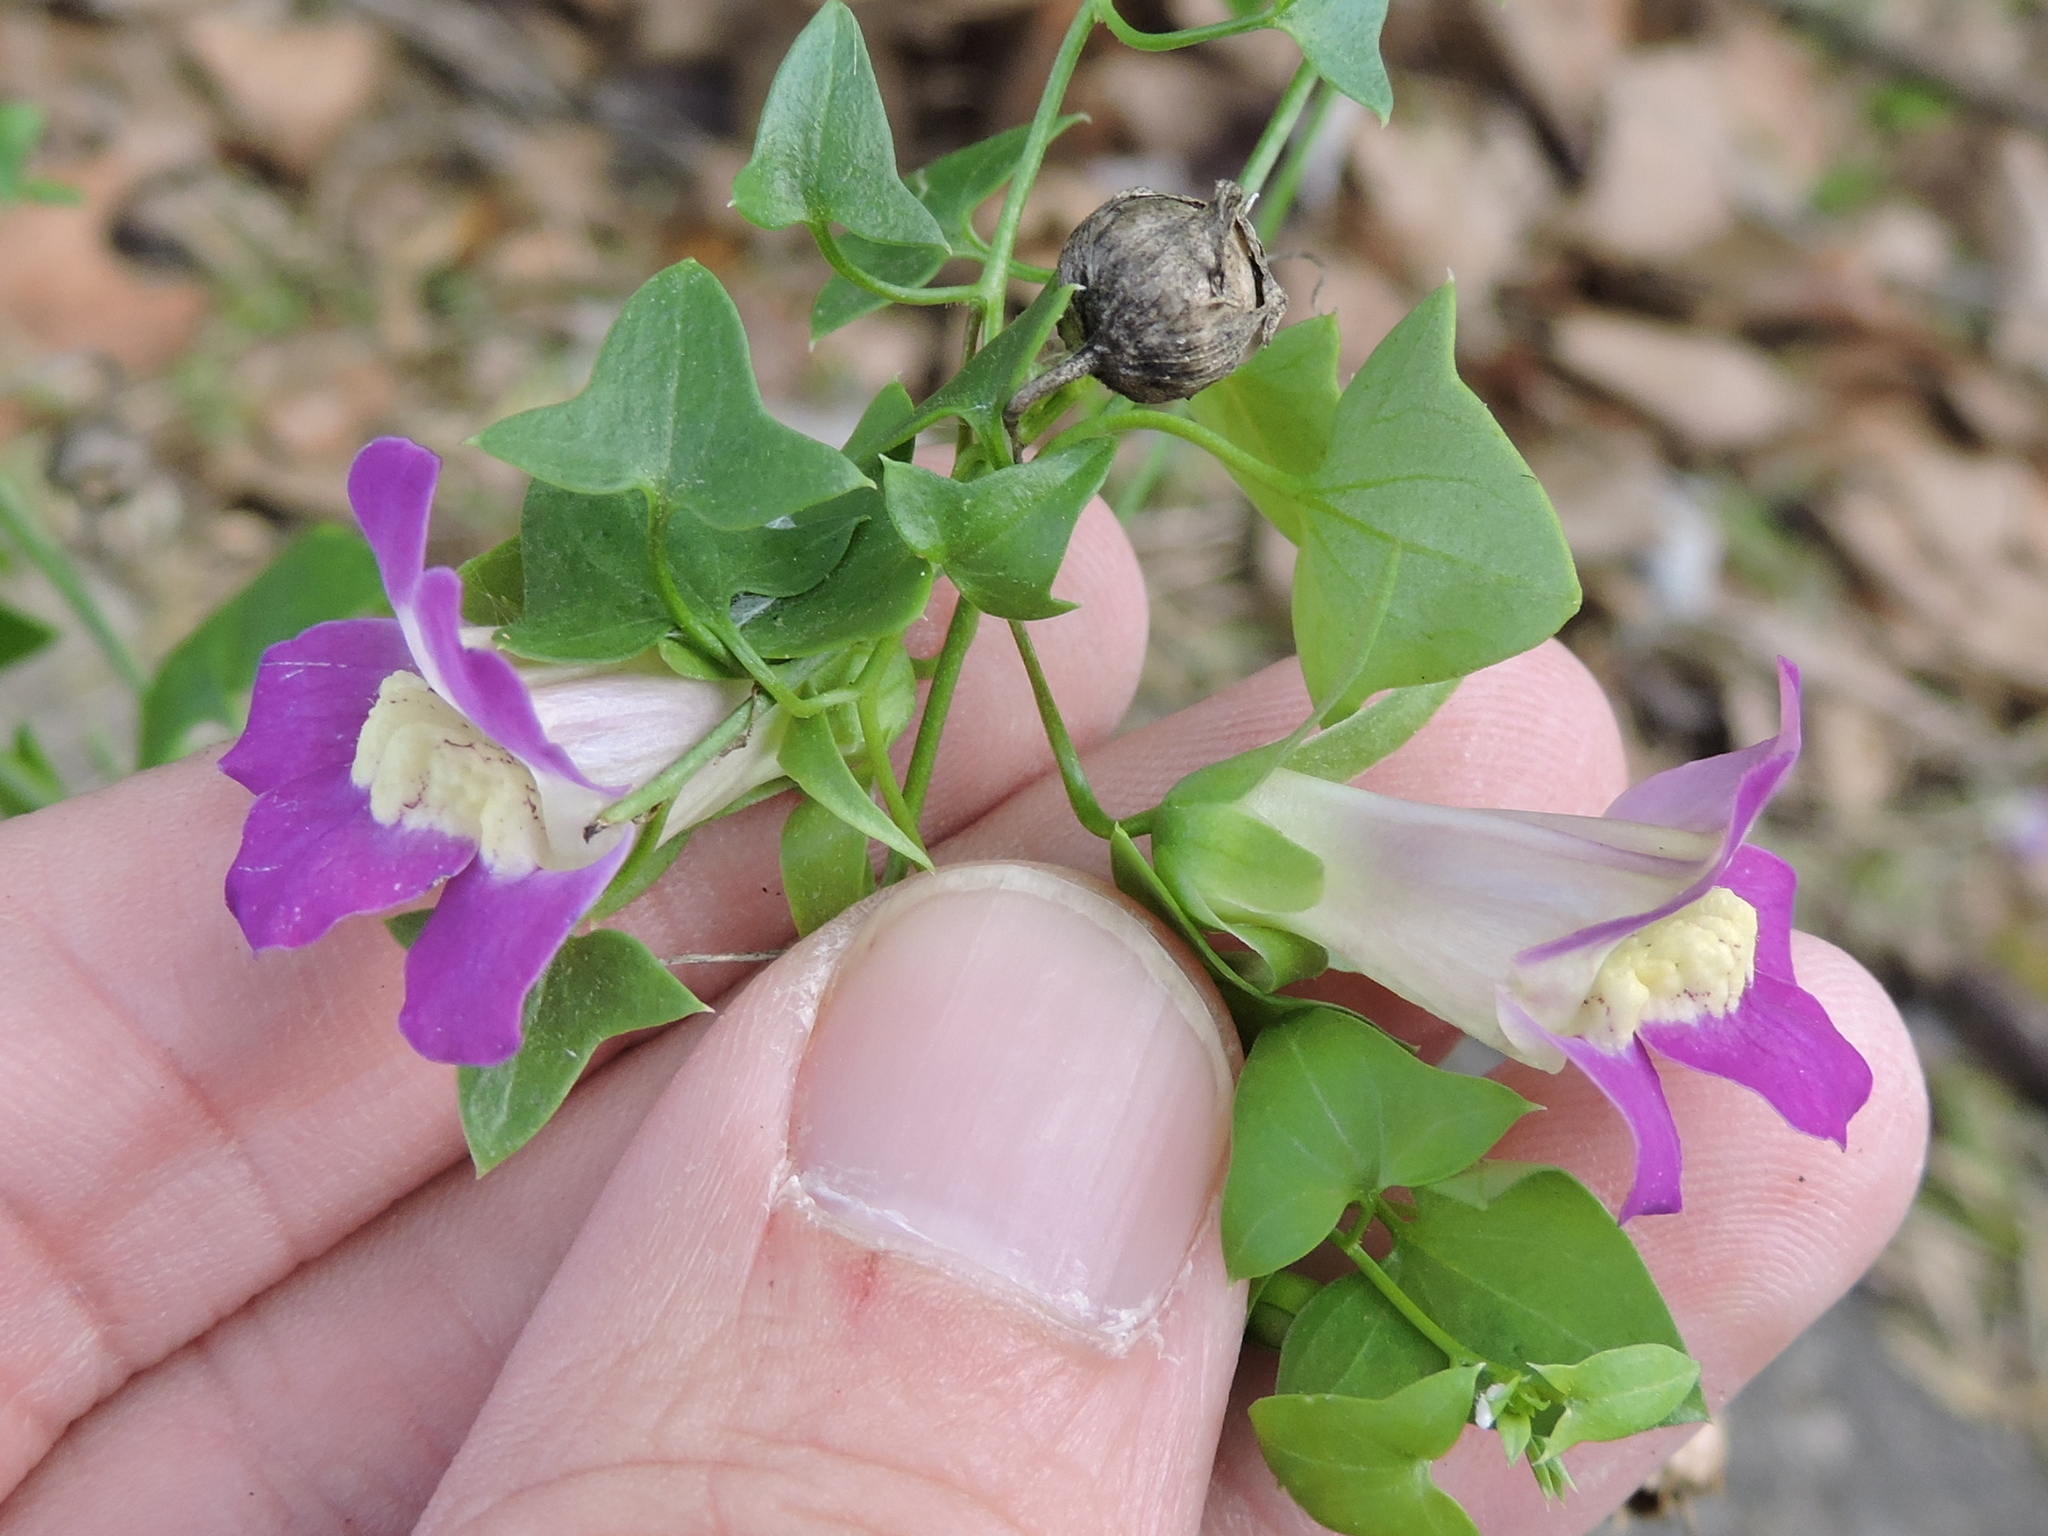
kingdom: Plantae
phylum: Tracheophyta
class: Magnoliopsida
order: Lamiales
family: Plantaginaceae
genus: Maurandella
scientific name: Maurandella antirrhiniflora
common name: Violet twining-snapdragon
